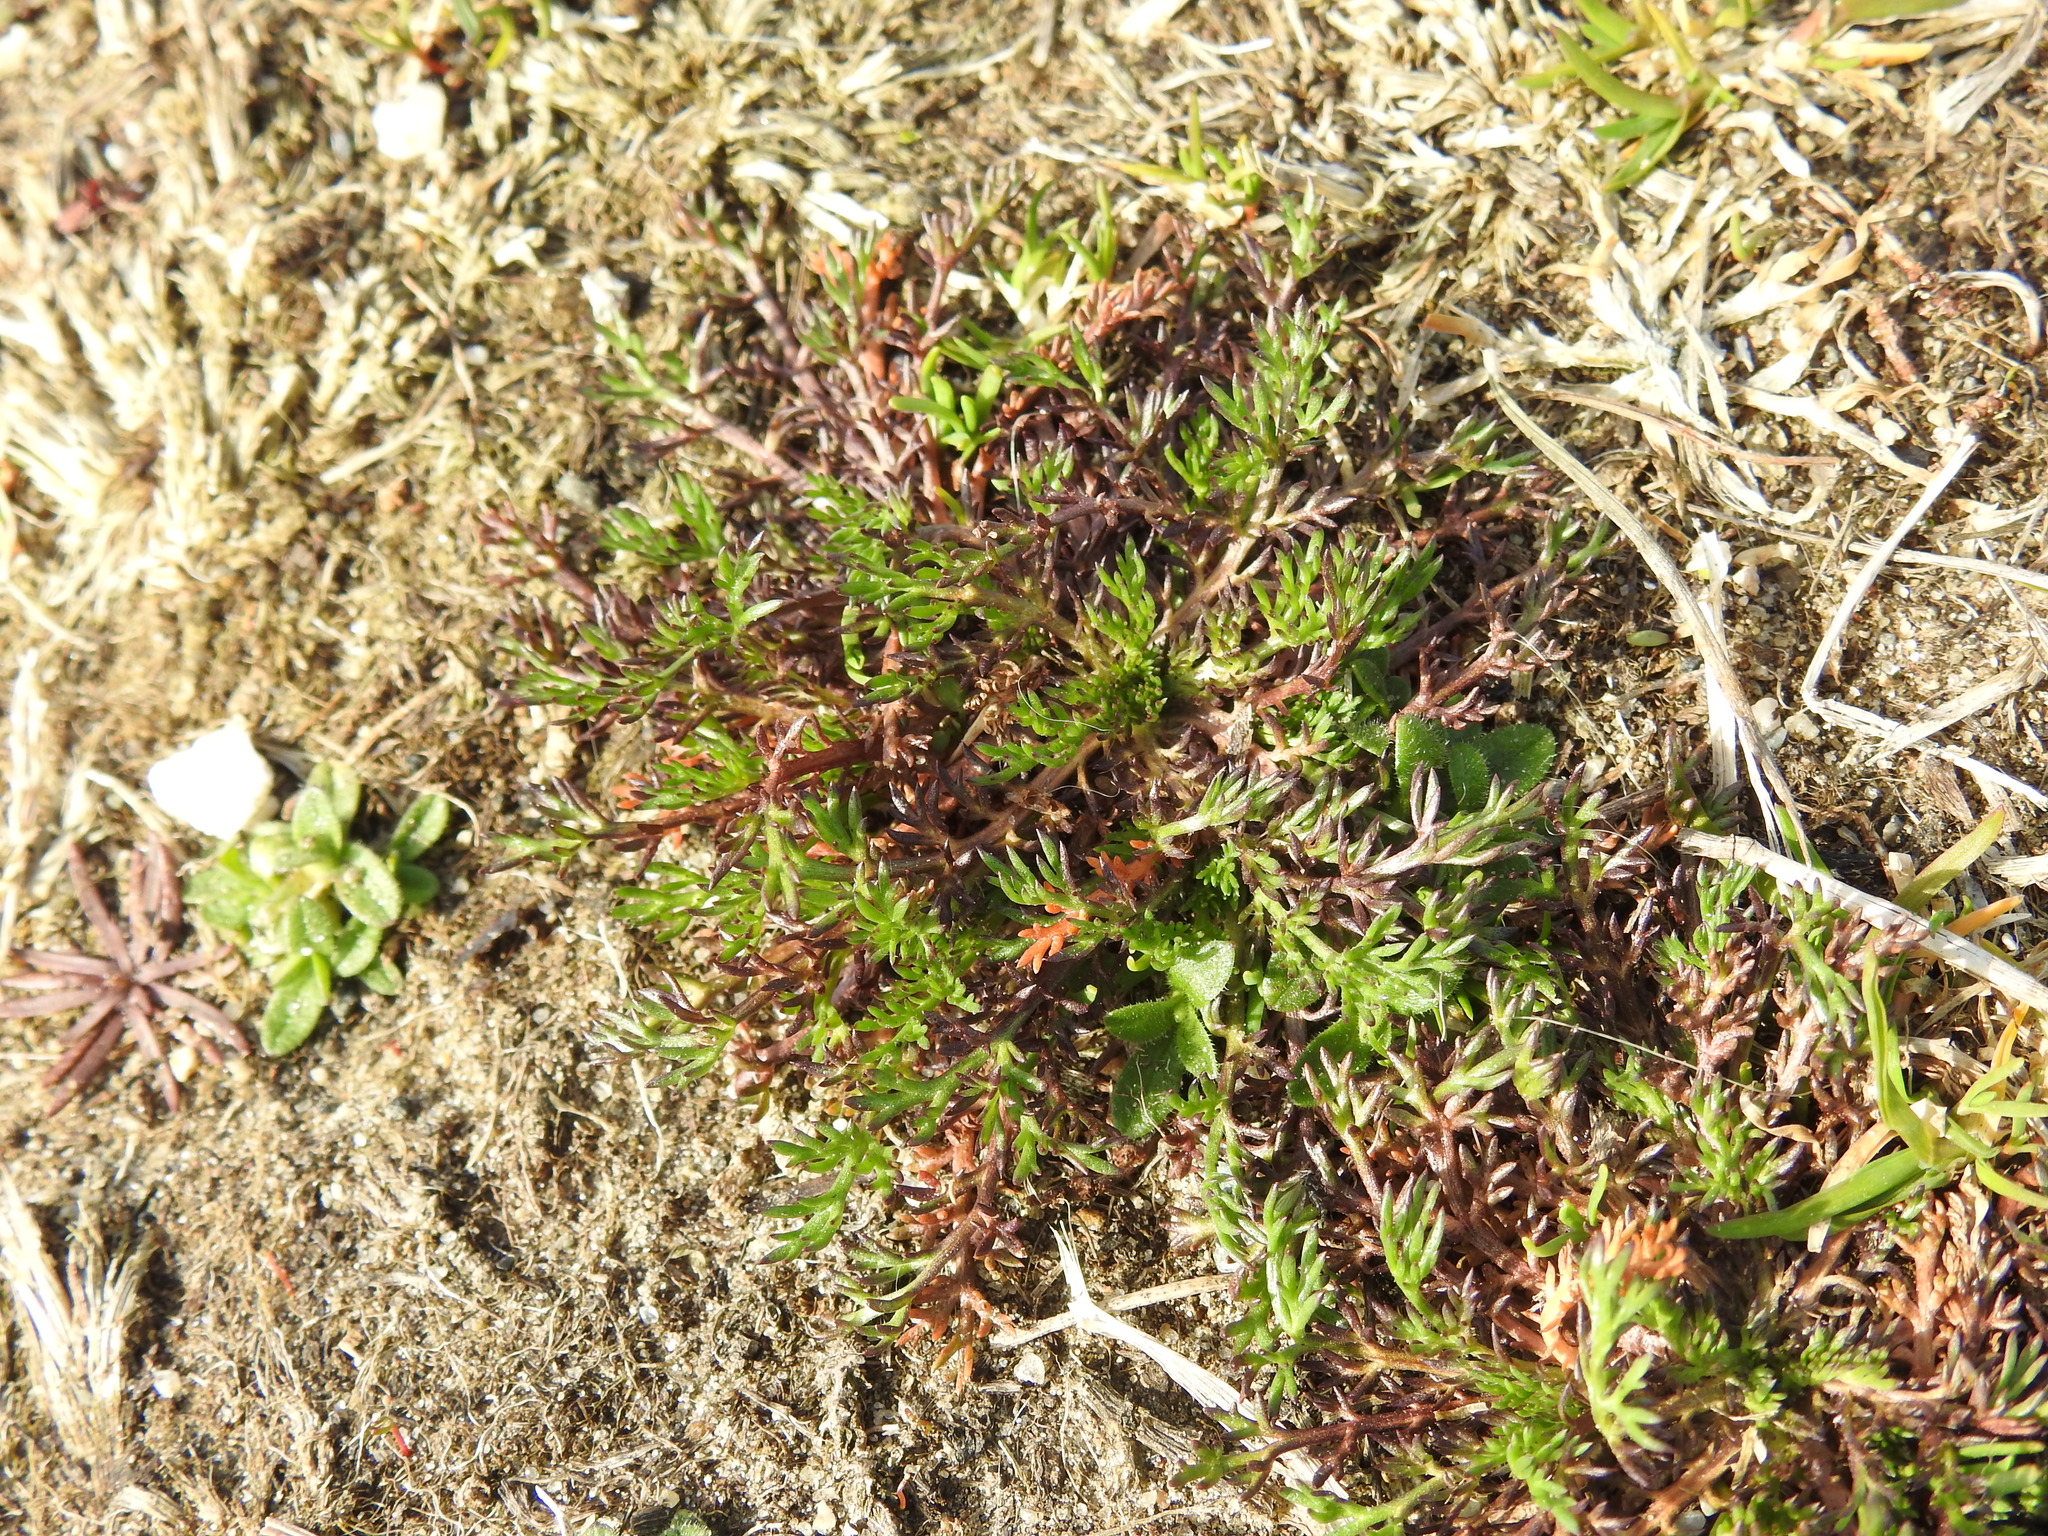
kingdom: Plantae
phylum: Tracheophyta
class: Magnoliopsida
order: Asterales
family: Asteraceae
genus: Soliva
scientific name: Soliva sessilis
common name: Field burrweed
